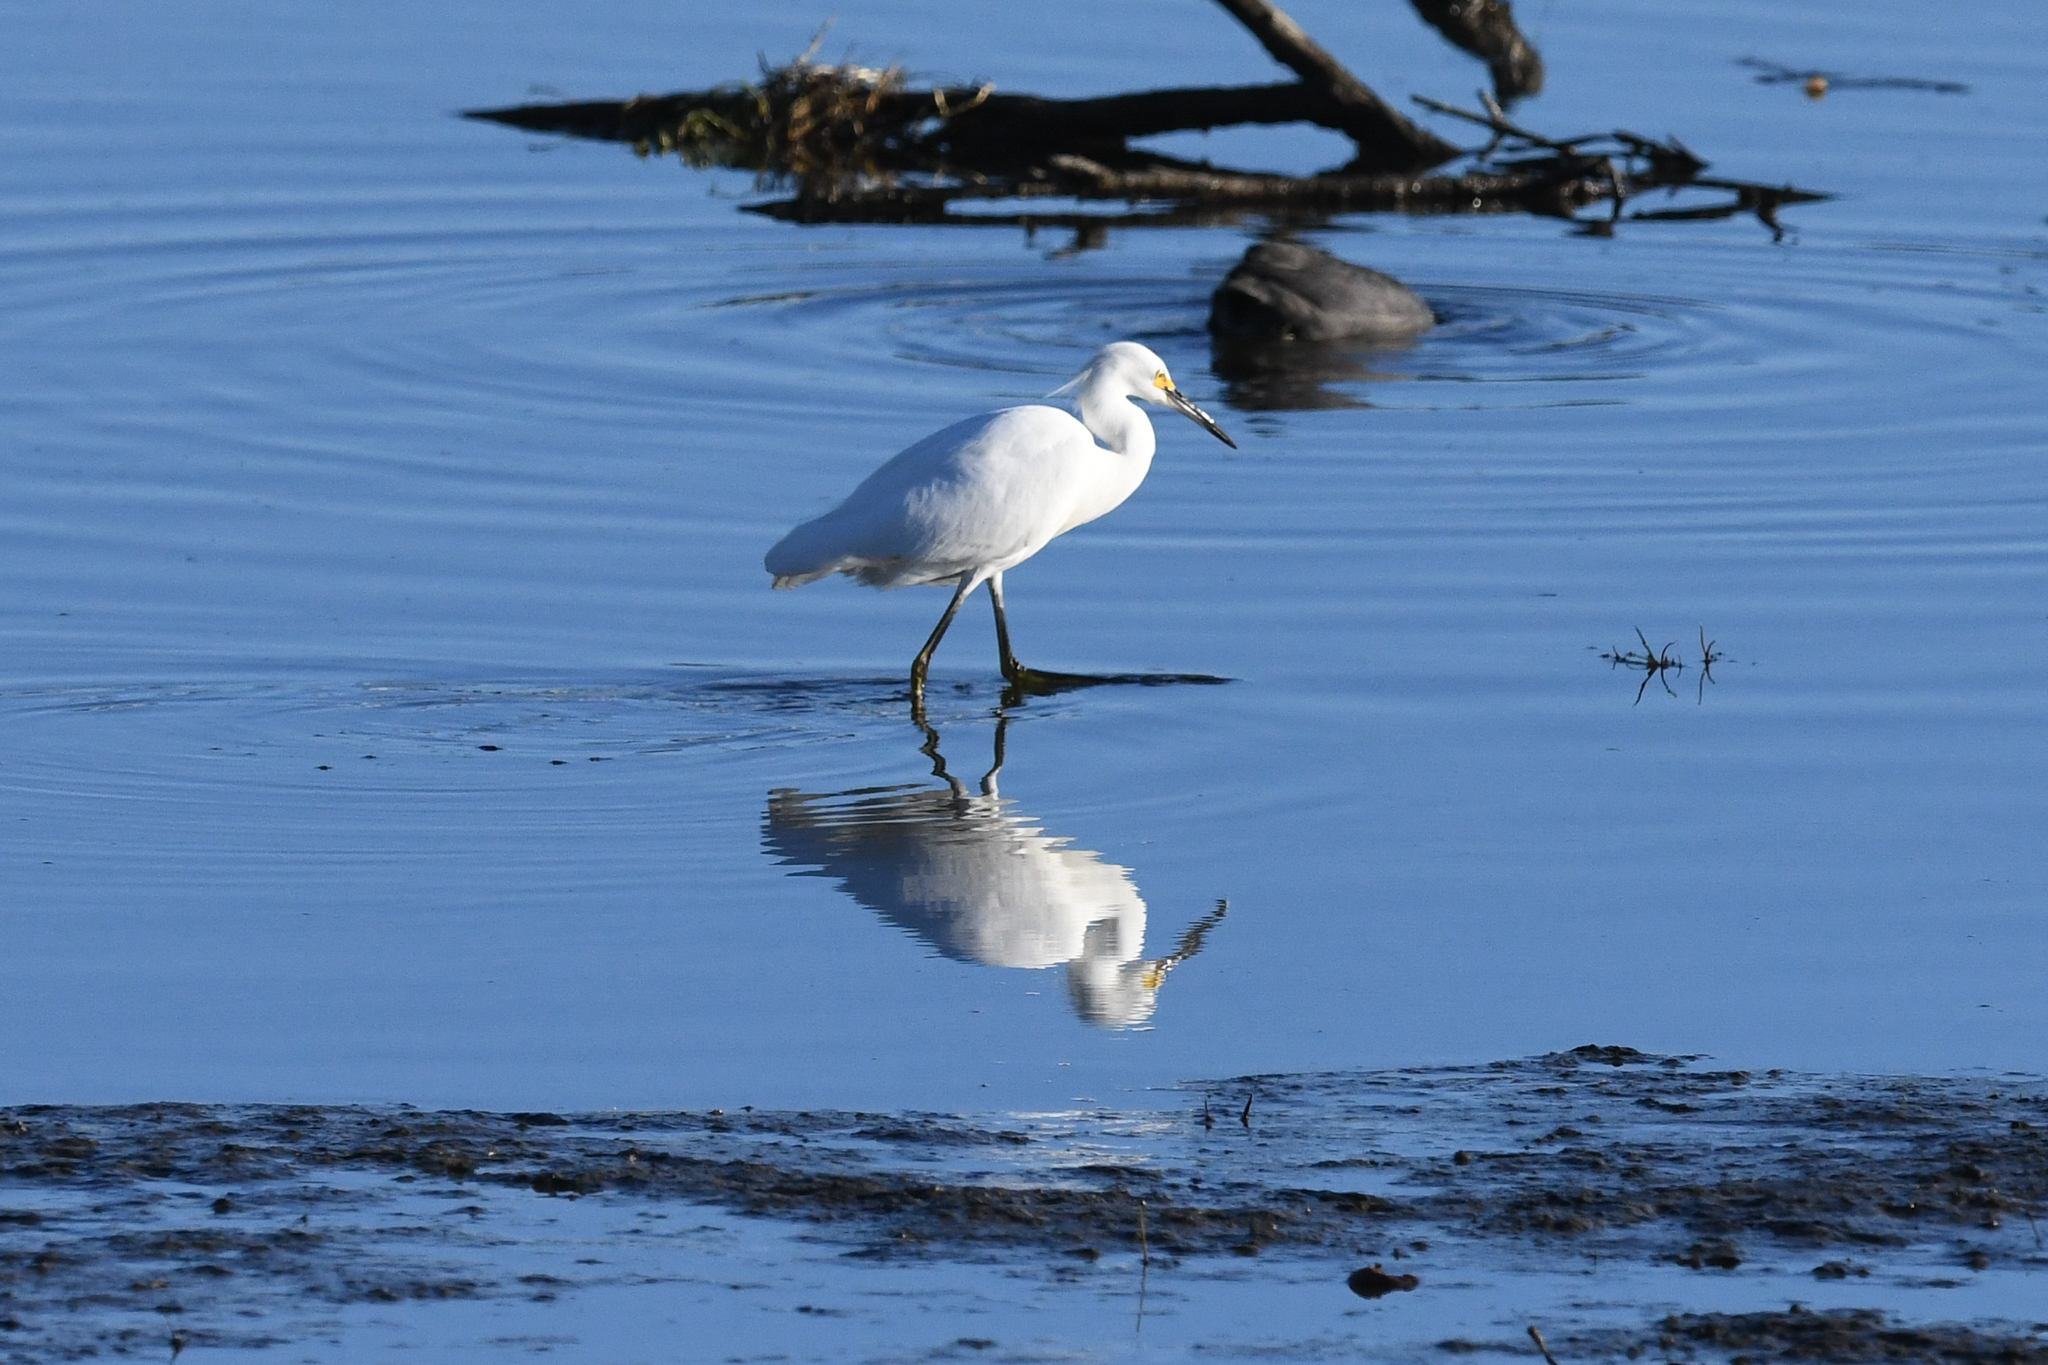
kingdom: Animalia
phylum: Chordata
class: Aves
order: Pelecaniformes
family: Ardeidae
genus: Egretta
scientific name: Egretta thula
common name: Snowy egret
